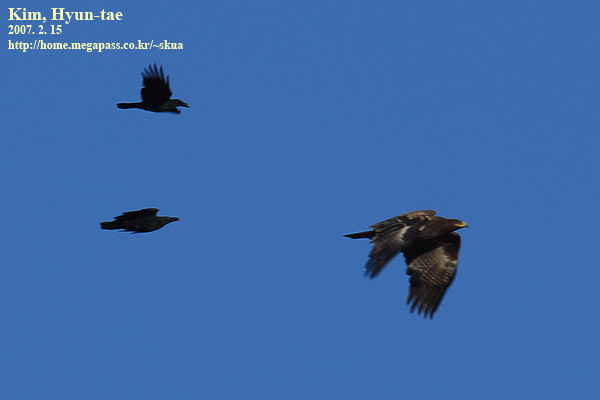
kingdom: Animalia
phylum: Chordata
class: Aves
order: Accipitriformes
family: Accipitridae
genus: Aquila
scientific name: Aquila nipalensis
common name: Steppe eagle
